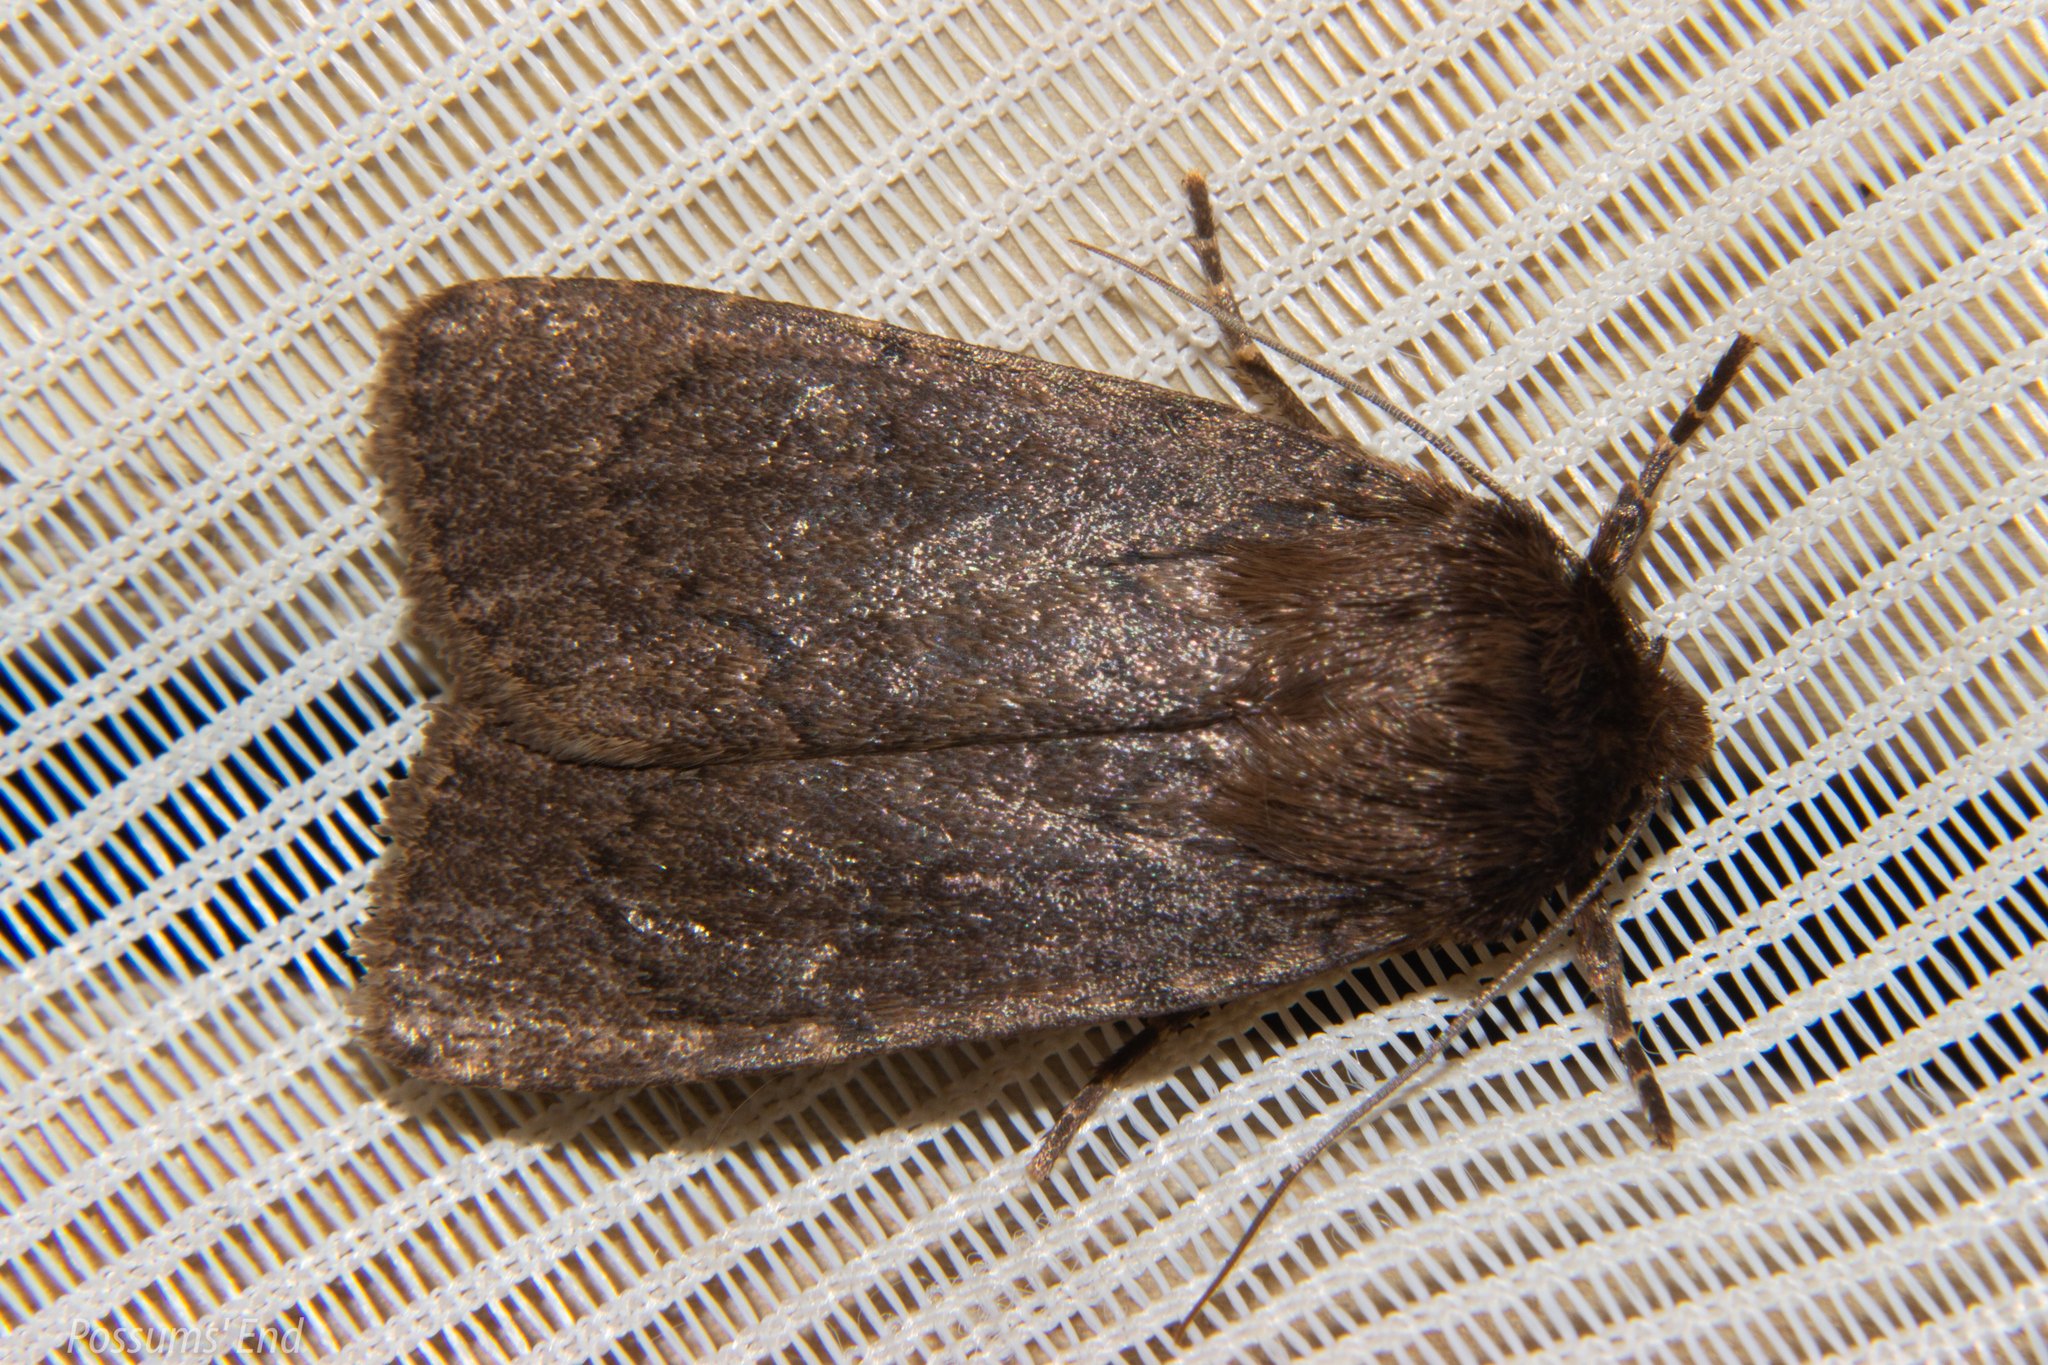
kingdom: Animalia
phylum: Arthropoda
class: Insecta
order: Lepidoptera
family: Noctuidae
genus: Bityla
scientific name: Bityla defigurata
